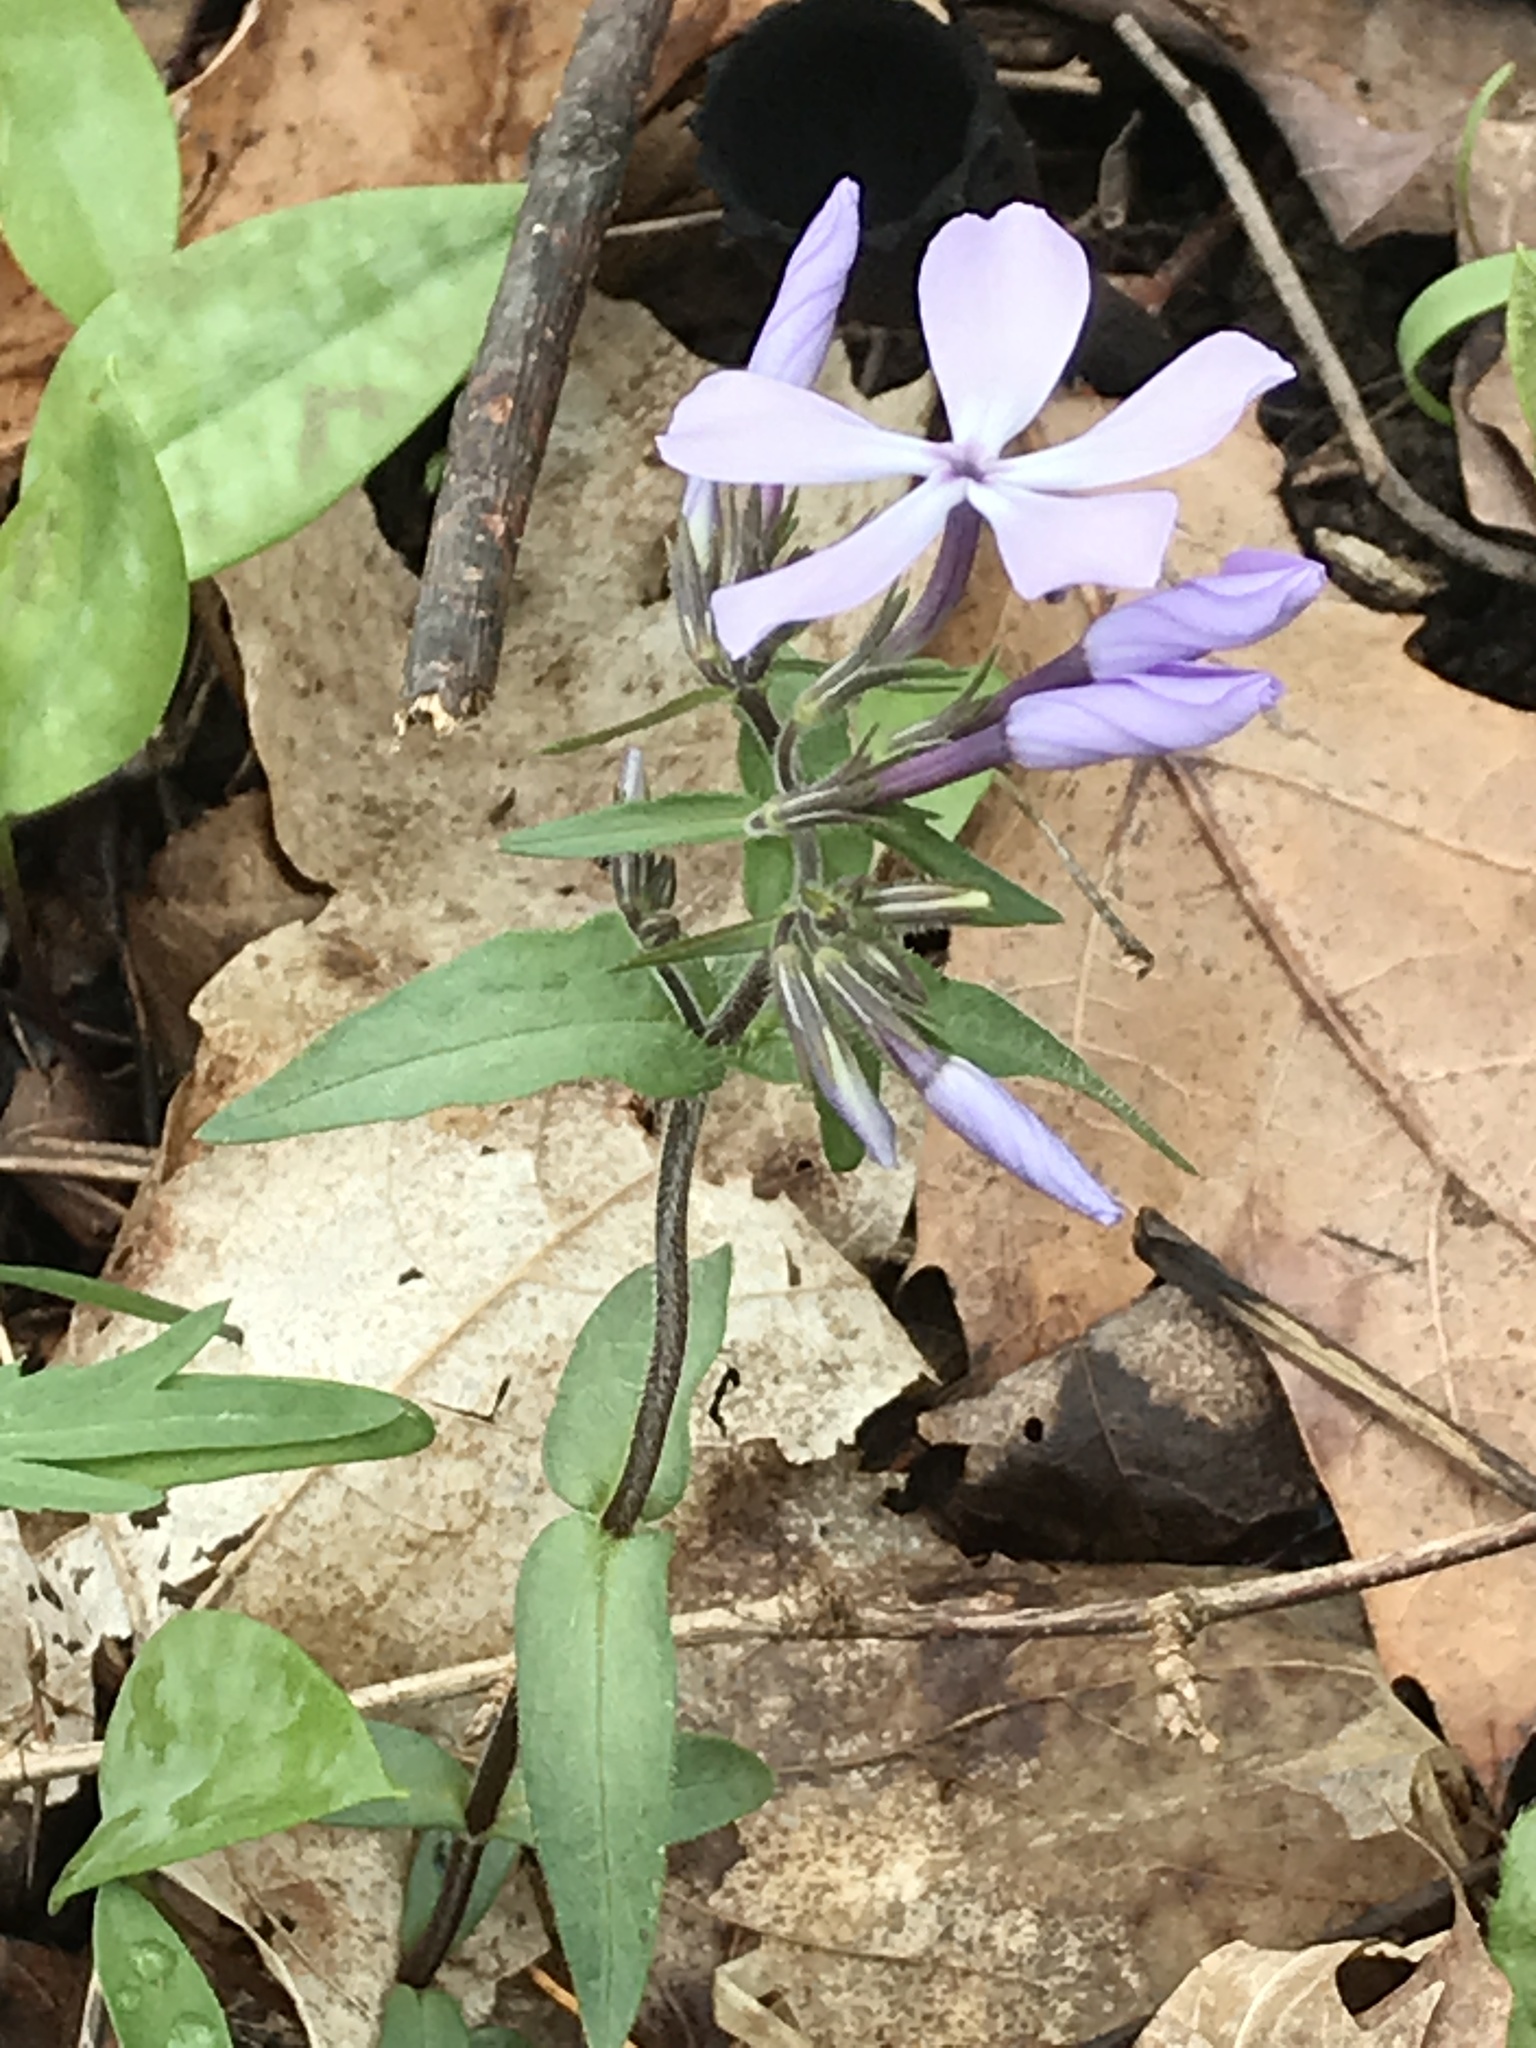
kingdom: Plantae
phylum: Tracheophyta
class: Magnoliopsida
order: Ericales
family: Polemoniaceae
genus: Phlox
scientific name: Phlox divaricata
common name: Blue phlox
